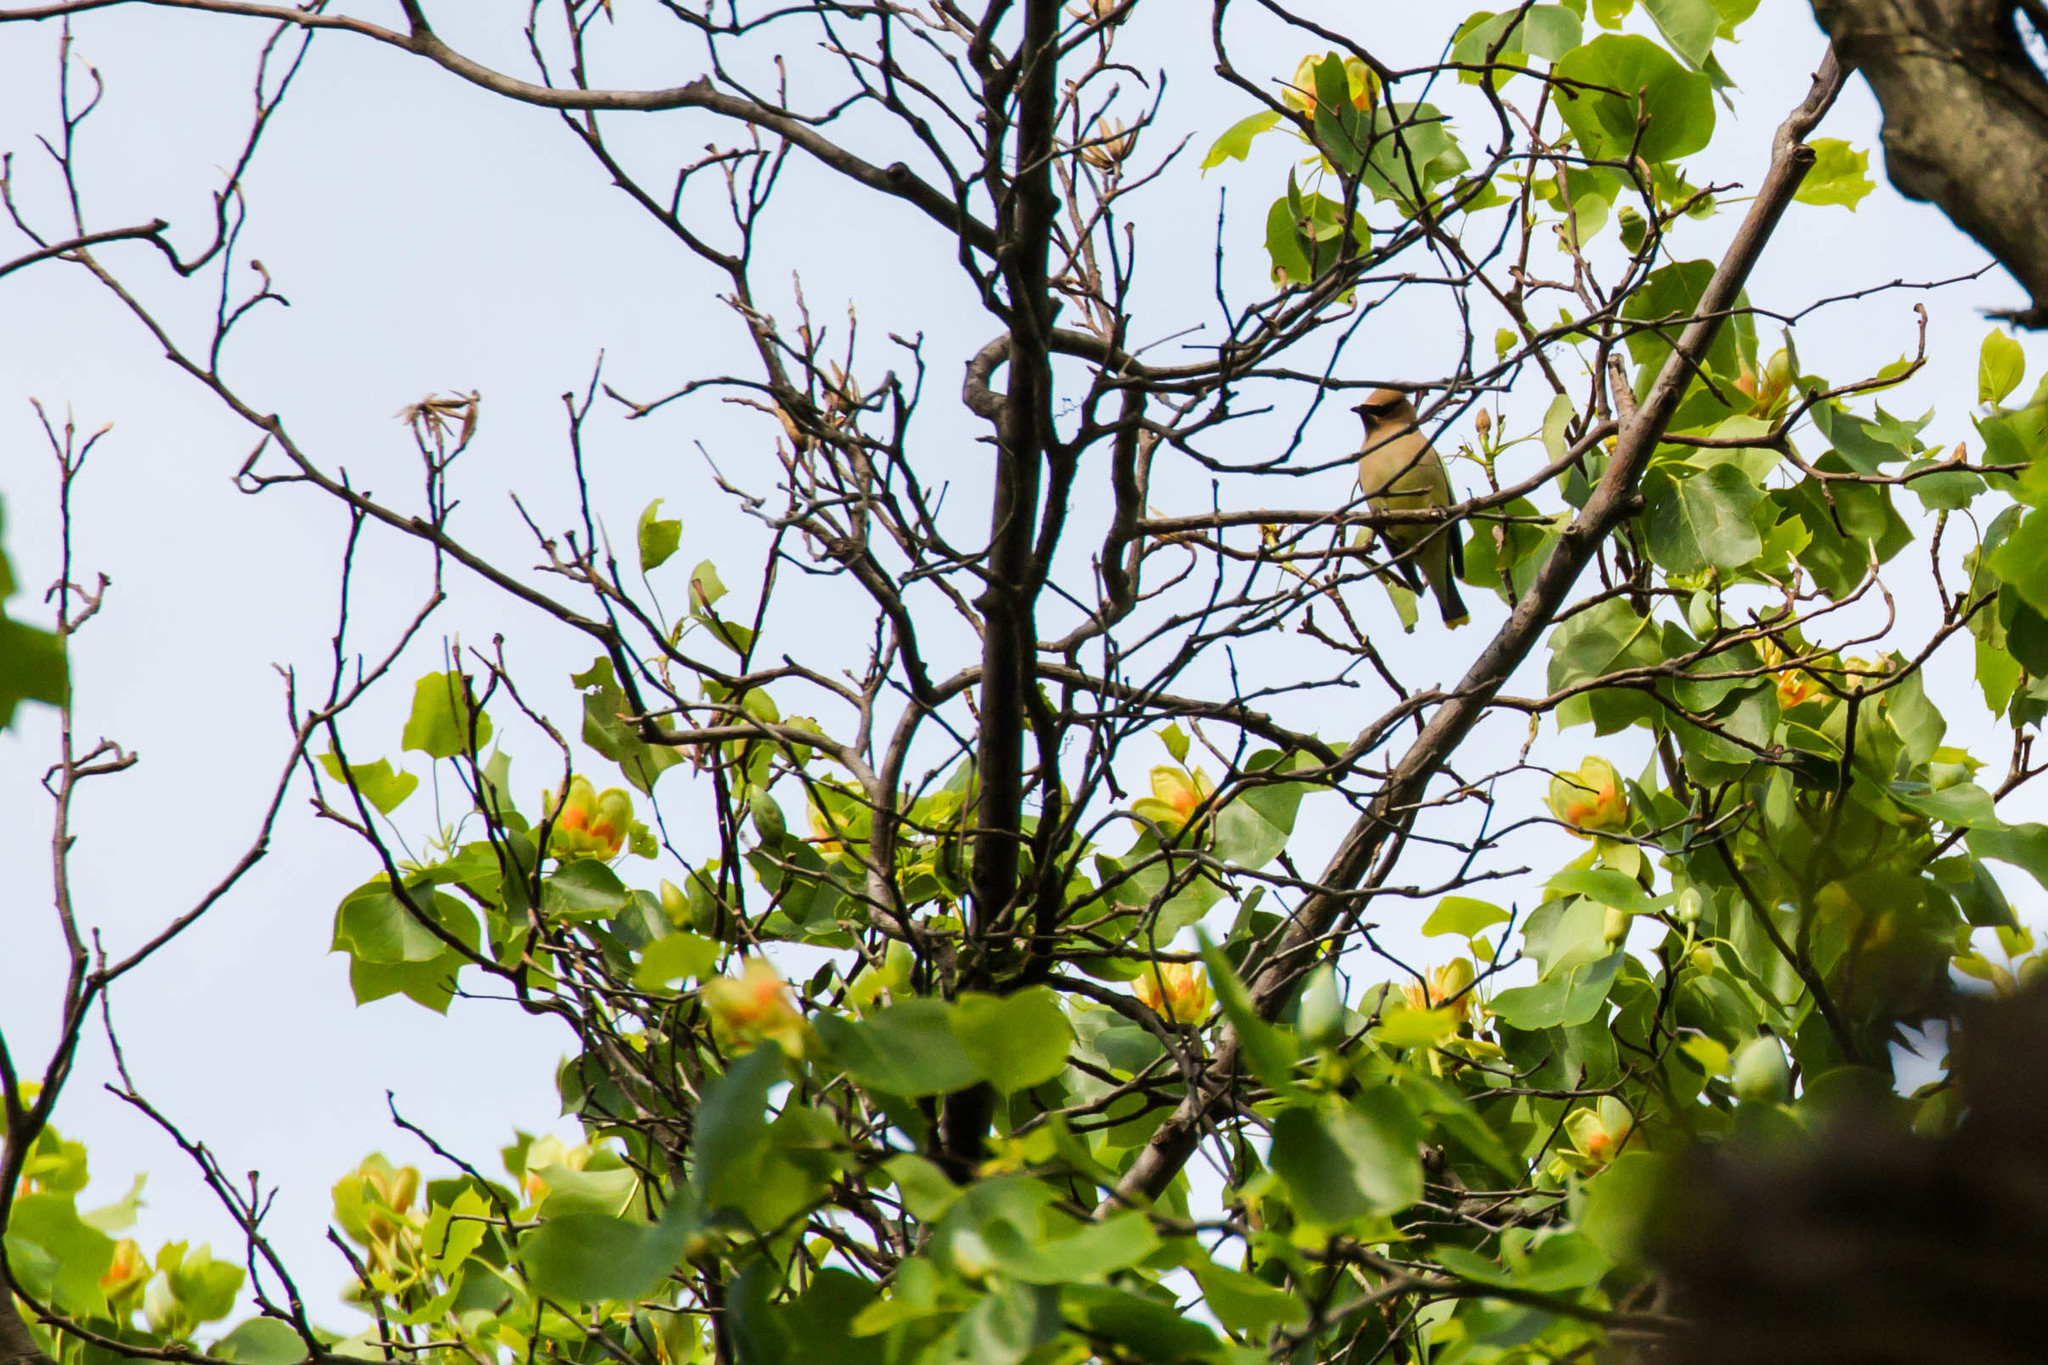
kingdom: Animalia
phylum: Chordata
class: Aves
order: Passeriformes
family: Bombycillidae
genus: Bombycilla
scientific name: Bombycilla cedrorum
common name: Cedar waxwing
